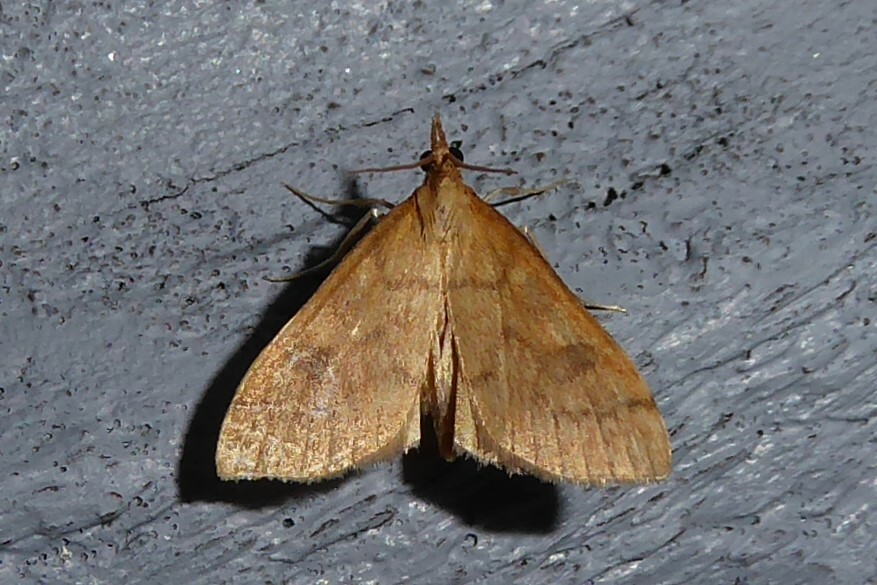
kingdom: Animalia
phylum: Arthropoda
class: Insecta
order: Lepidoptera
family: Crambidae
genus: Udea
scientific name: Udea Mnesictena flavidalis
